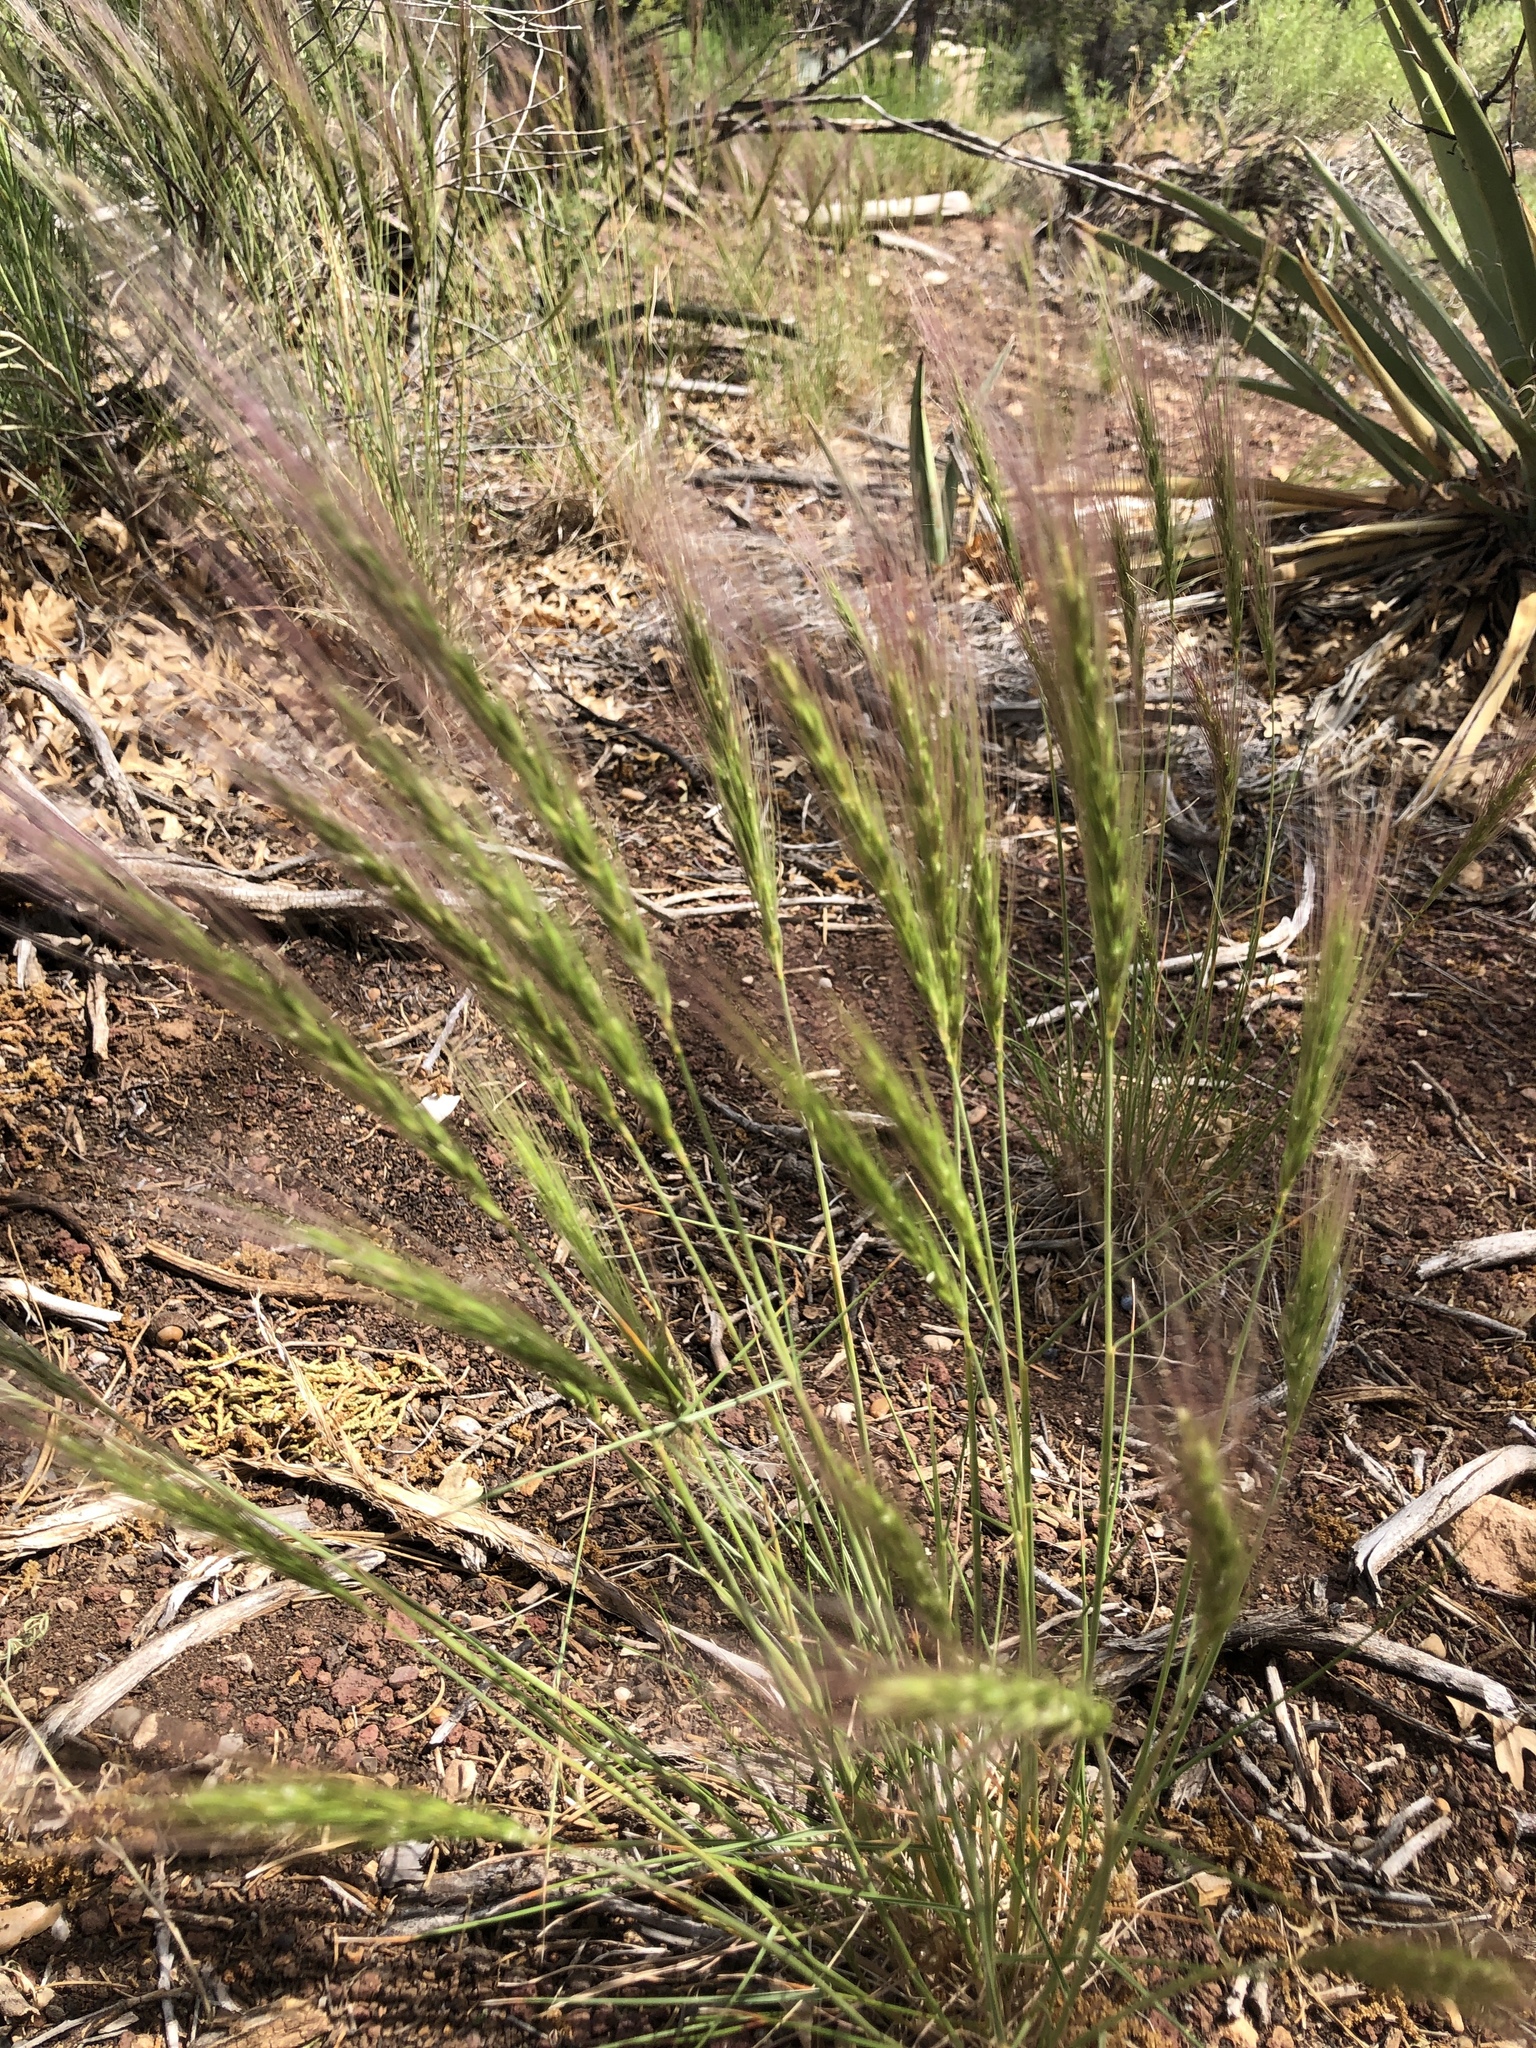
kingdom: Plantae
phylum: Tracheophyta
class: Liliopsida
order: Poales
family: Poaceae
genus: Elymus
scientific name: Elymus elymoides
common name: Bottlebrush squirreltail
